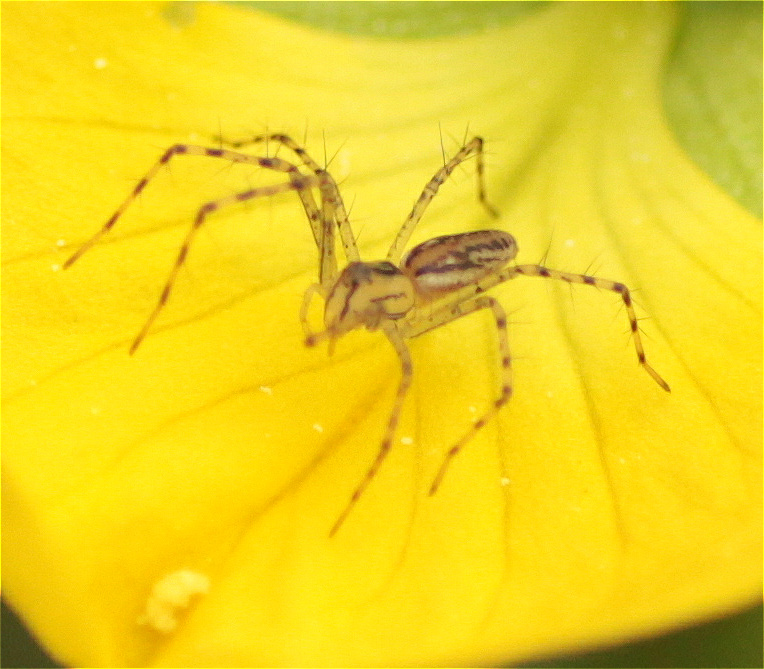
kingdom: Animalia
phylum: Arthropoda
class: Arachnida
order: Araneae
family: Oxyopidae
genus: Peucetia
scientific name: Peucetia rubrolineata
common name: Lynx spiders
